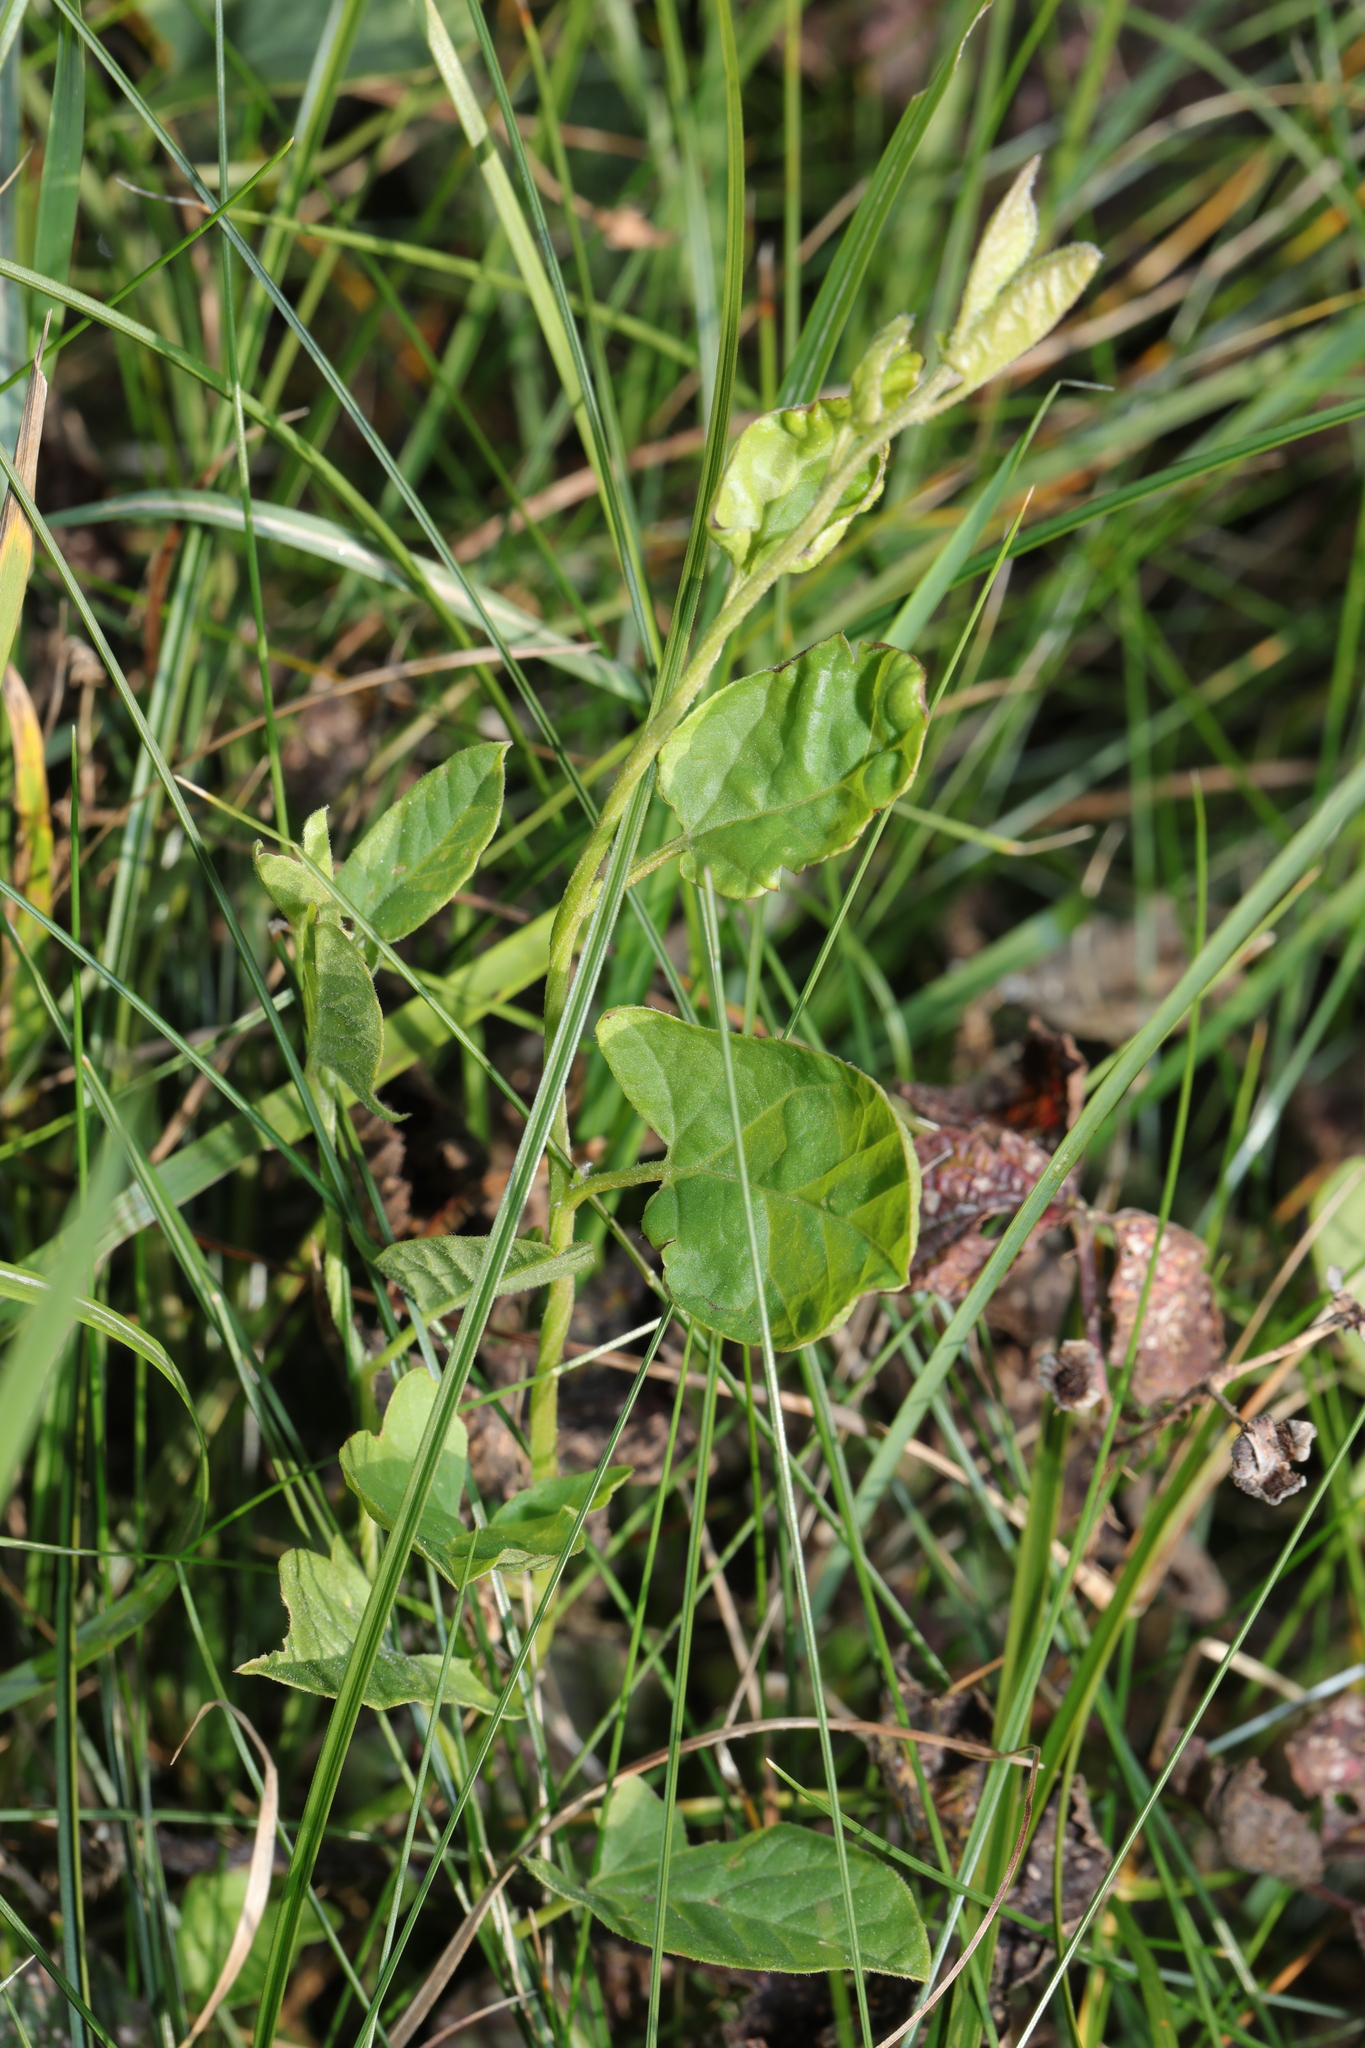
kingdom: Plantae
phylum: Tracheophyta
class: Magnoliopsida
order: Solanales
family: Convolvulaceae
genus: Convolvulus
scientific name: Convolvulus arvensis
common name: Field bindweed
